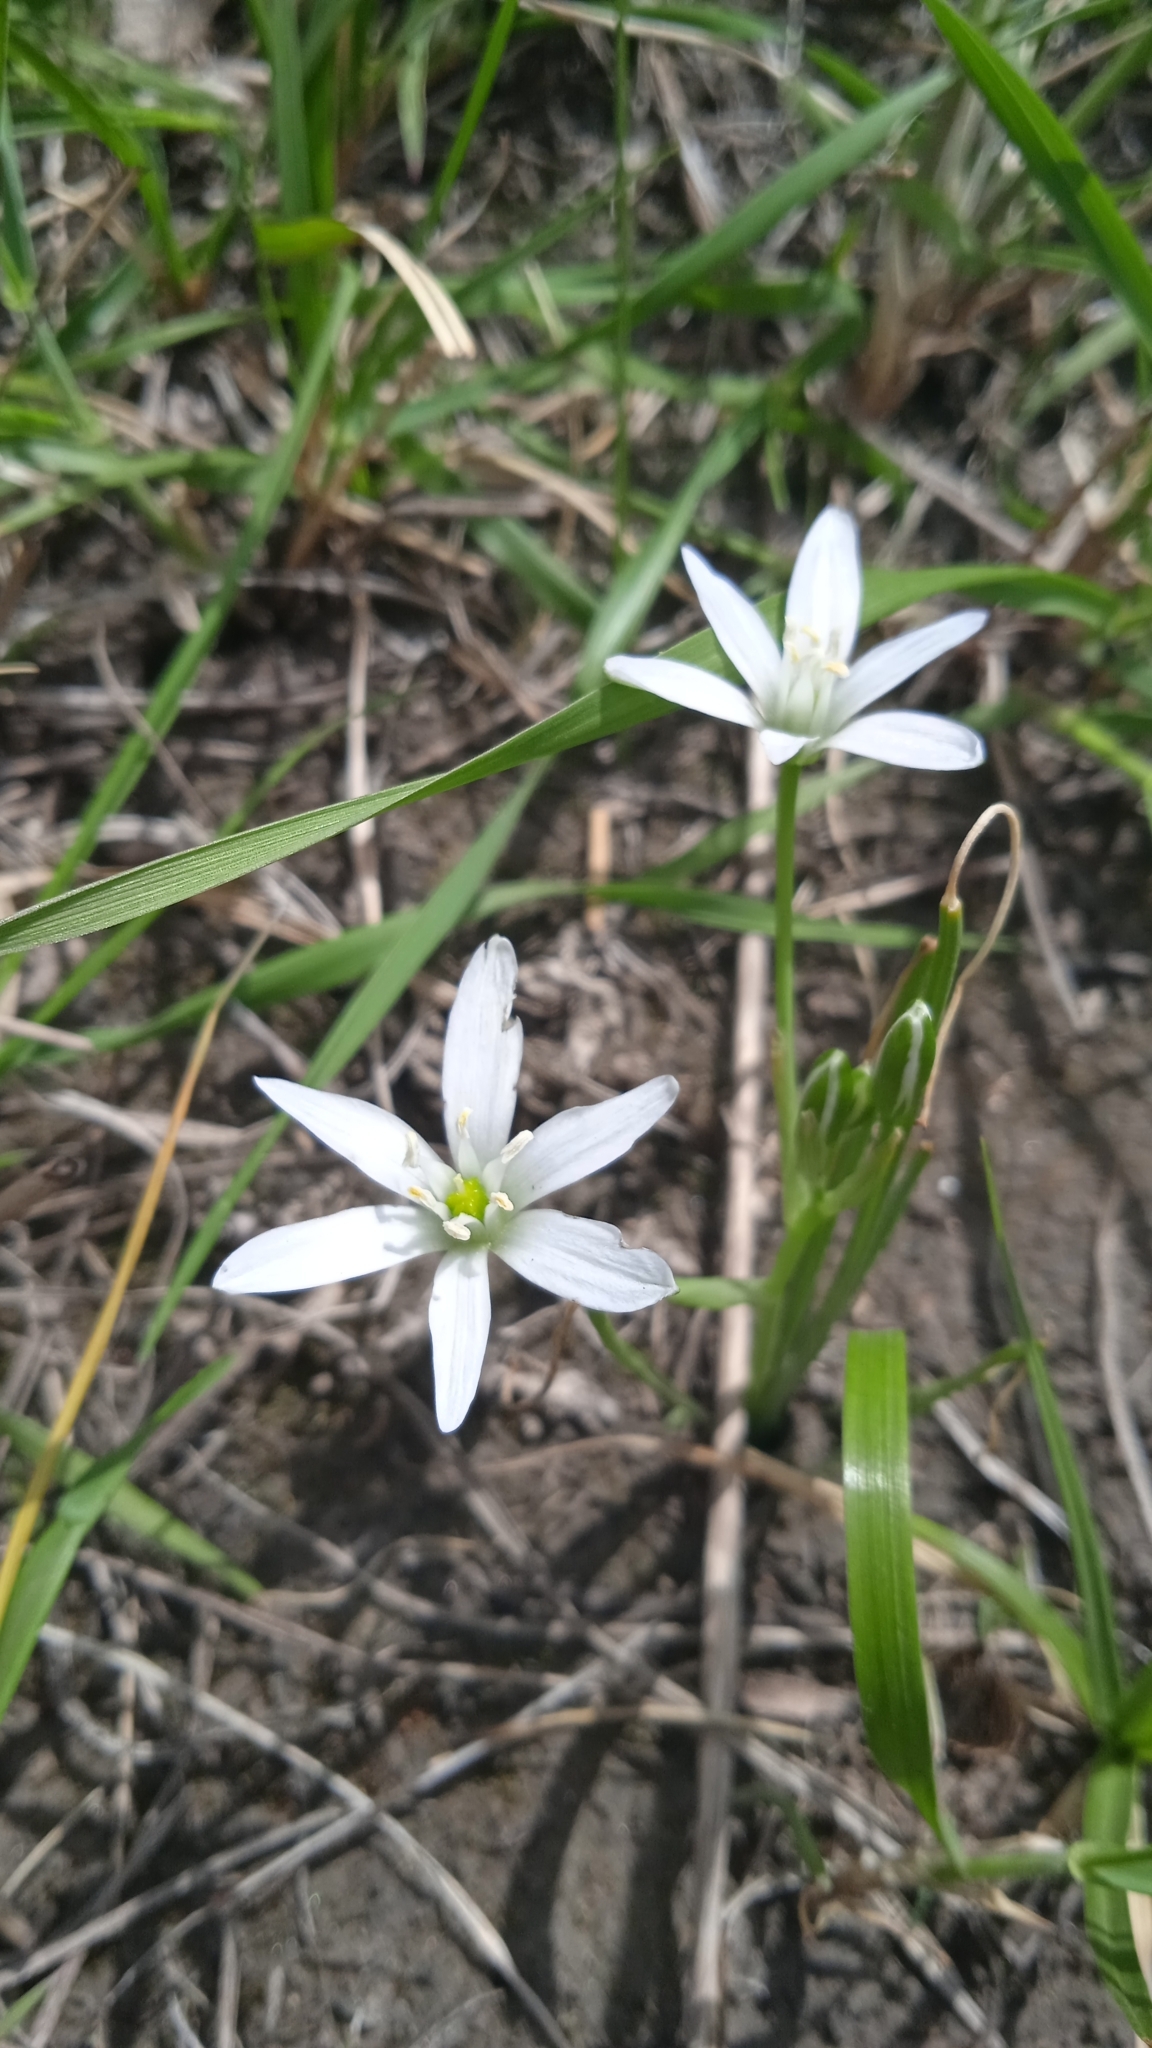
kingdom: Plantae
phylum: Tracheophyta
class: Liliopsida
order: Asparagales
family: Asparagaceae
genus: Ornithogalum
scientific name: Ornithogalum umbellatum
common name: Garden star-of-bethlehem
